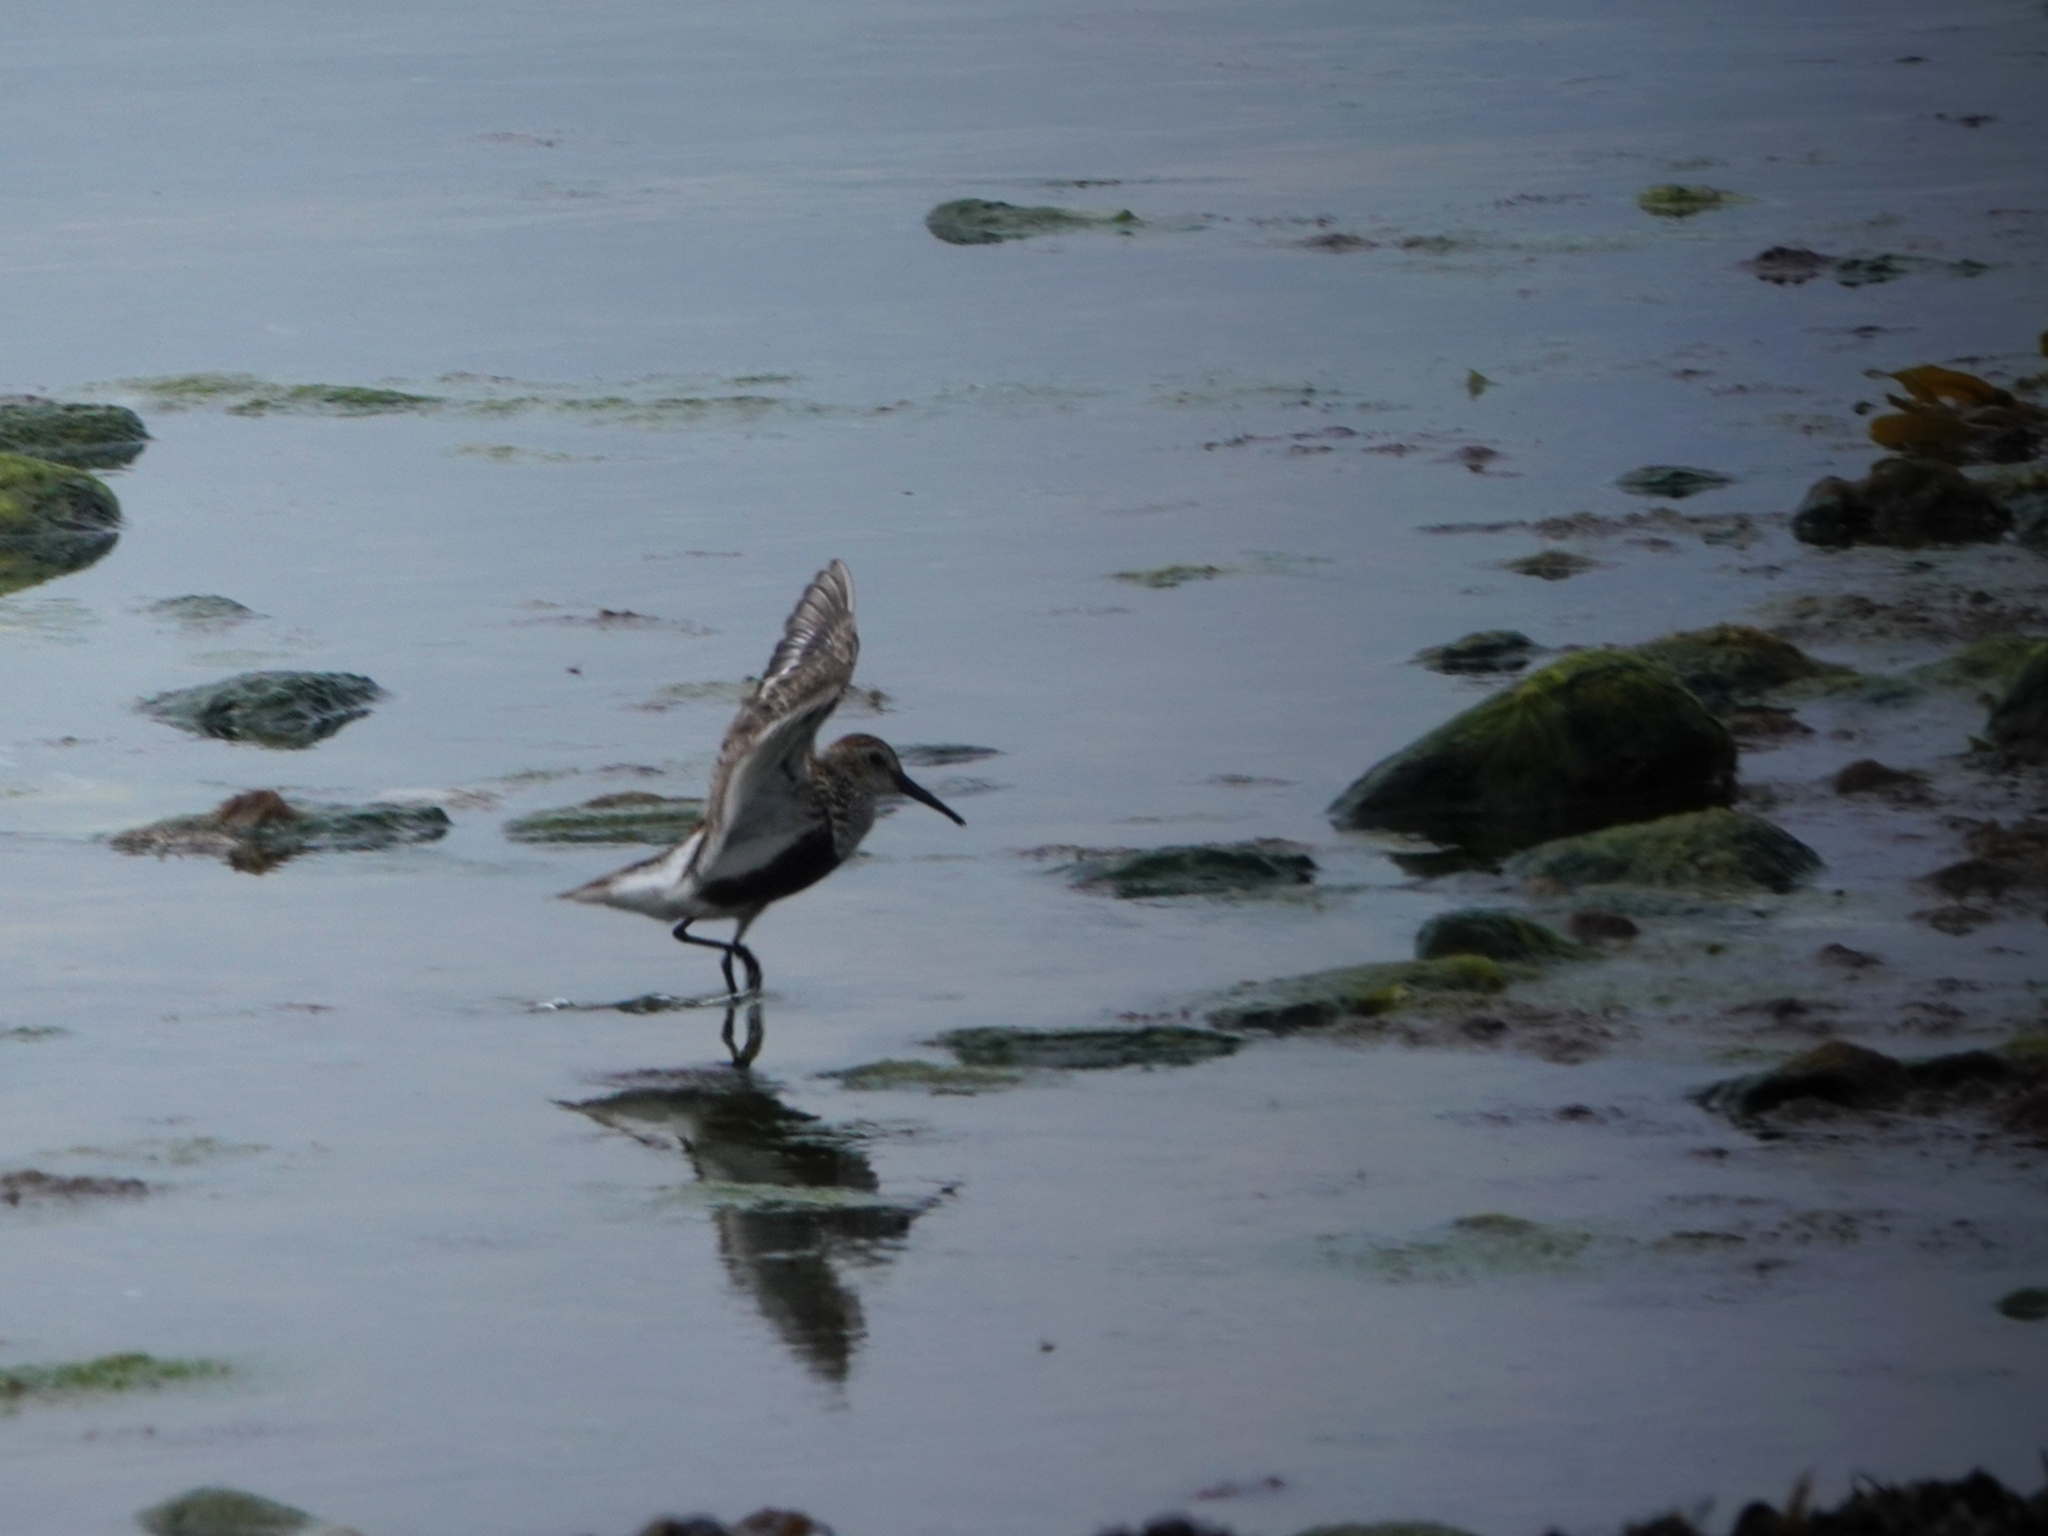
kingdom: Animalia
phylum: Chordata
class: Aves
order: Charadriiformes
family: Scolopacidae
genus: Calidris
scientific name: Calidris alpina
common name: Dunlin
